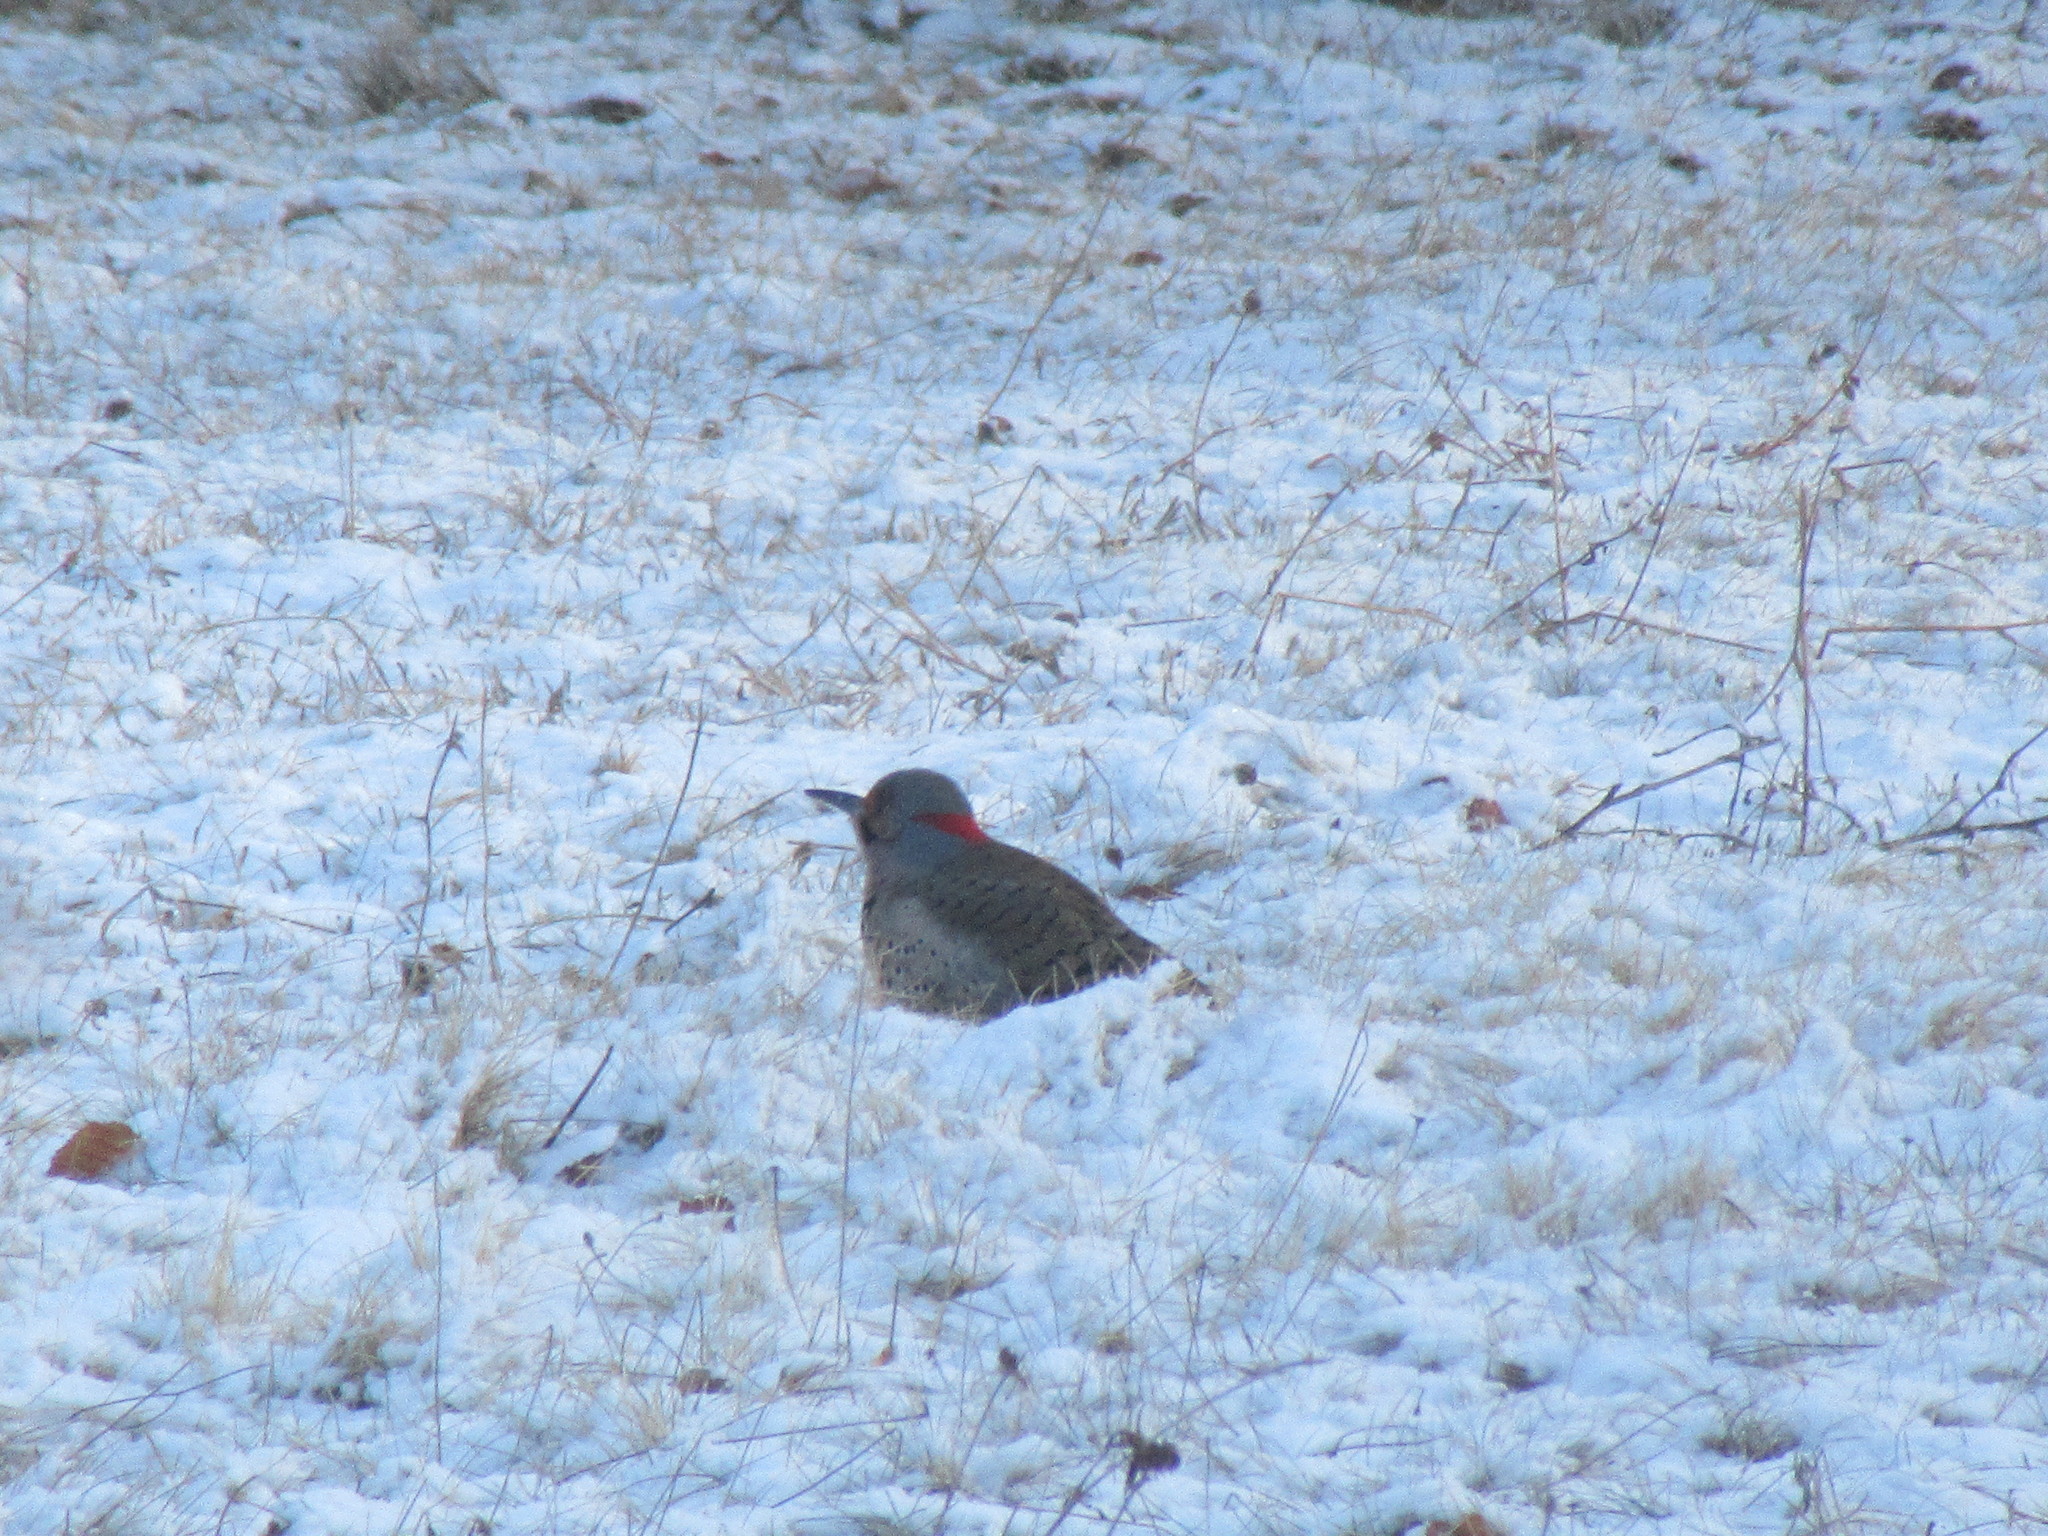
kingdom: Animalia
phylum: Chordata
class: Aves
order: Piciformes
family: Picidae
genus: Colaptes
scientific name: Colaptes auratus
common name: Northern flicker
